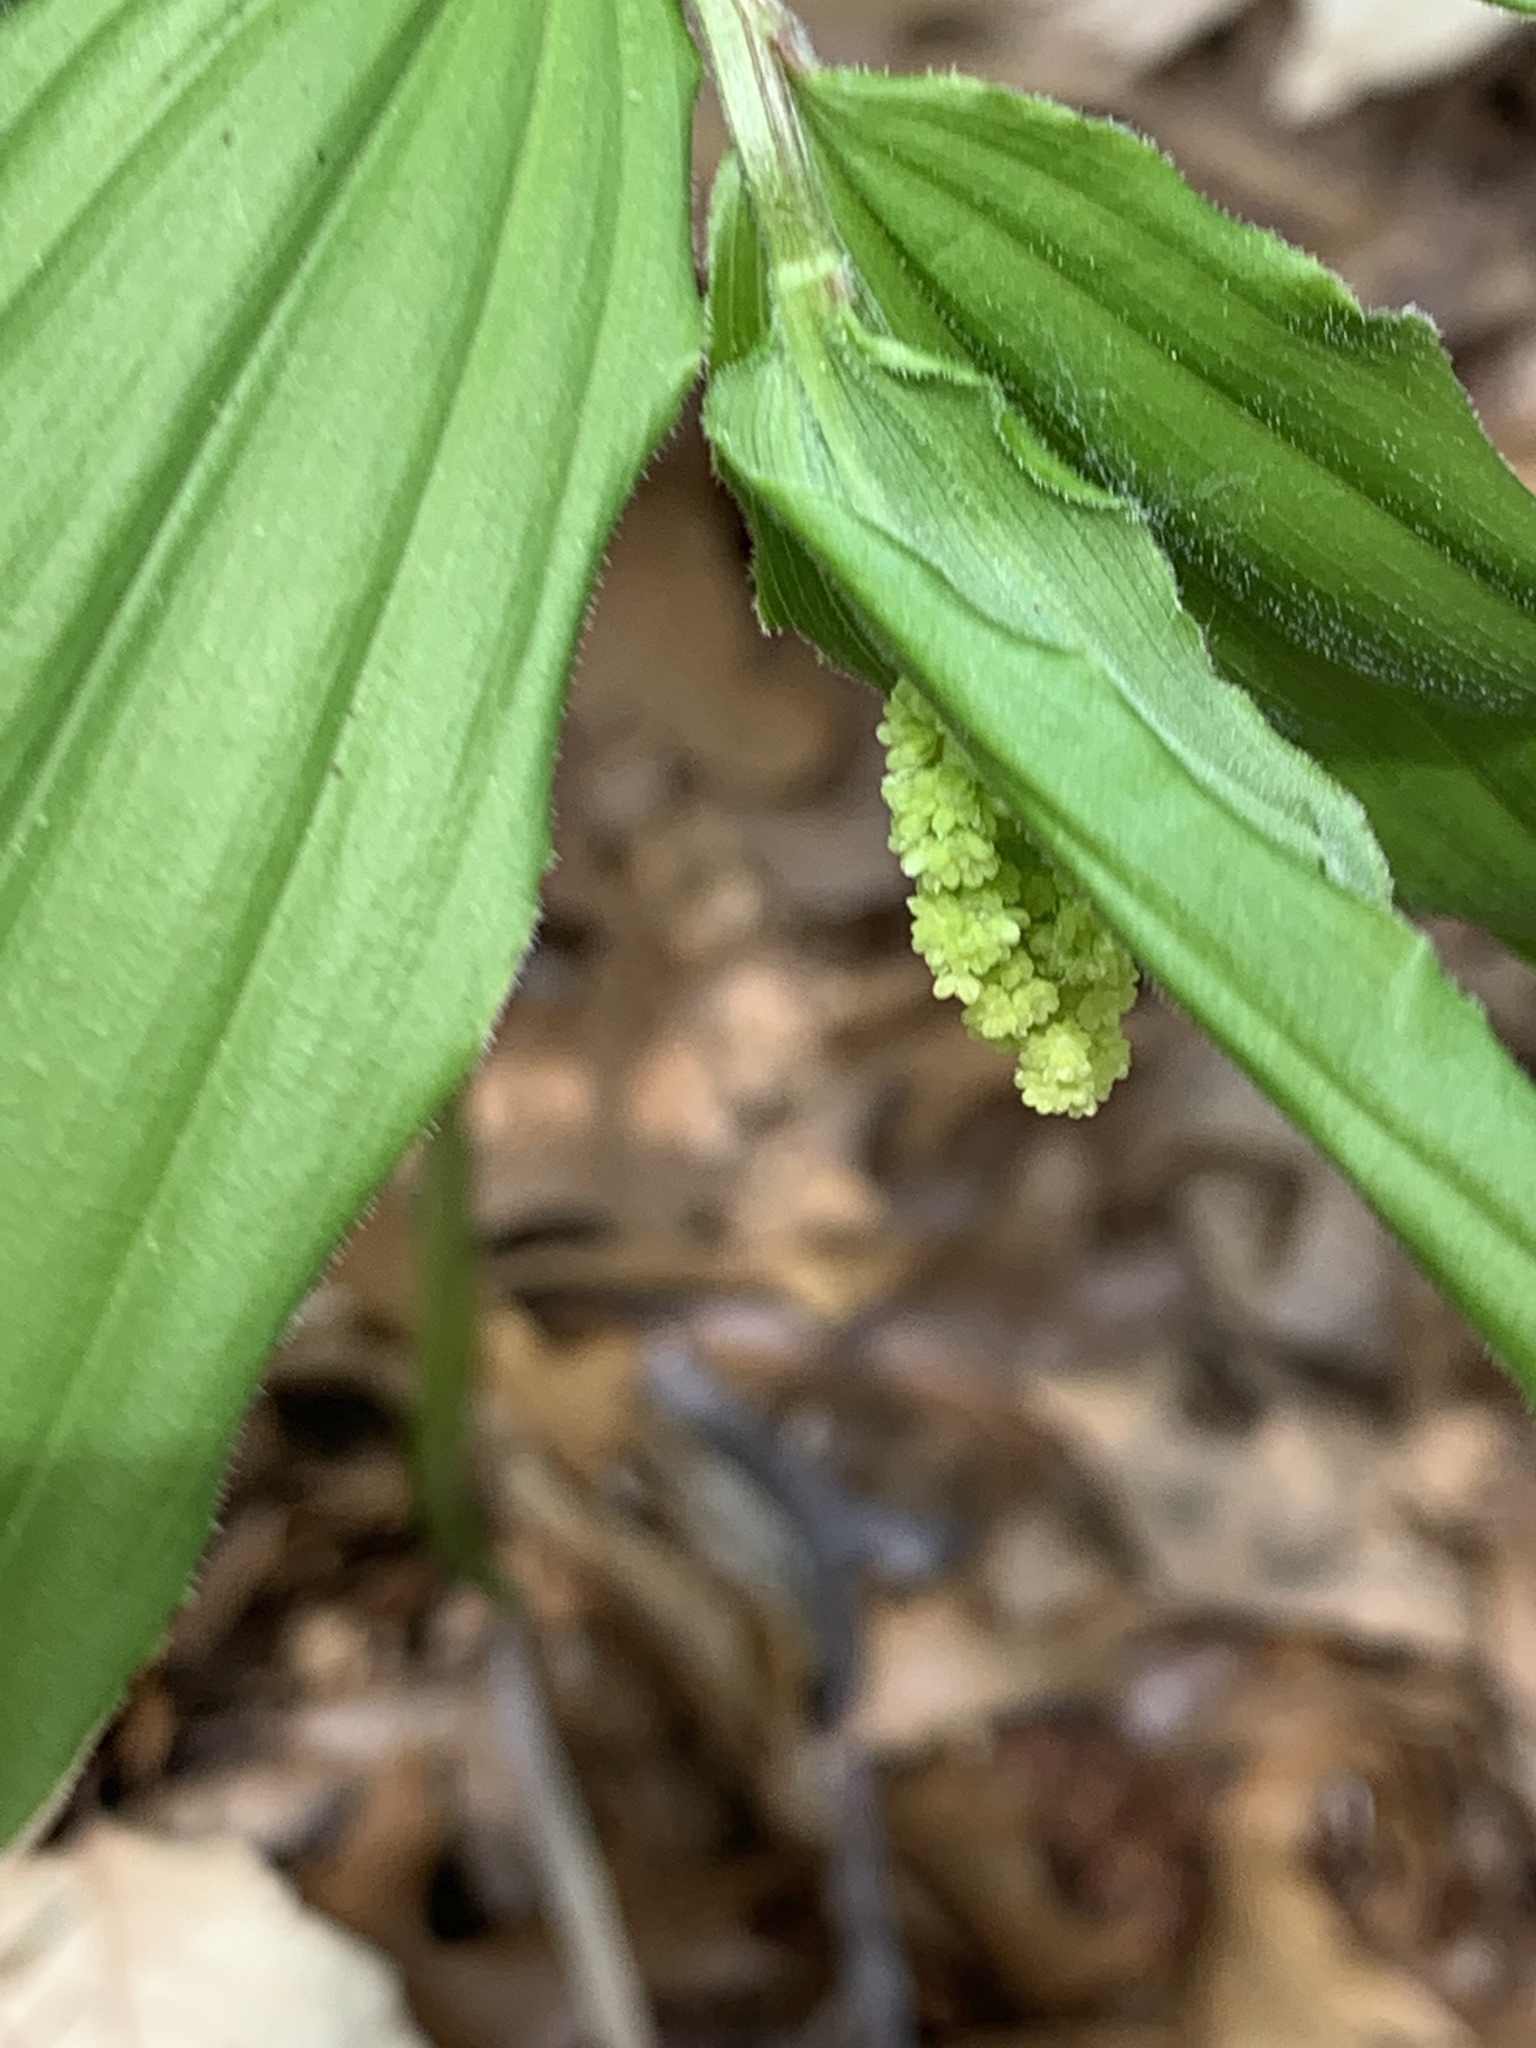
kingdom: Plantae
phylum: Tracheophyta
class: Liliopsida
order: Asparagales
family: Asparagaceae
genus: Maianthemum
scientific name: Maianthemum racemosum
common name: False spikenard
